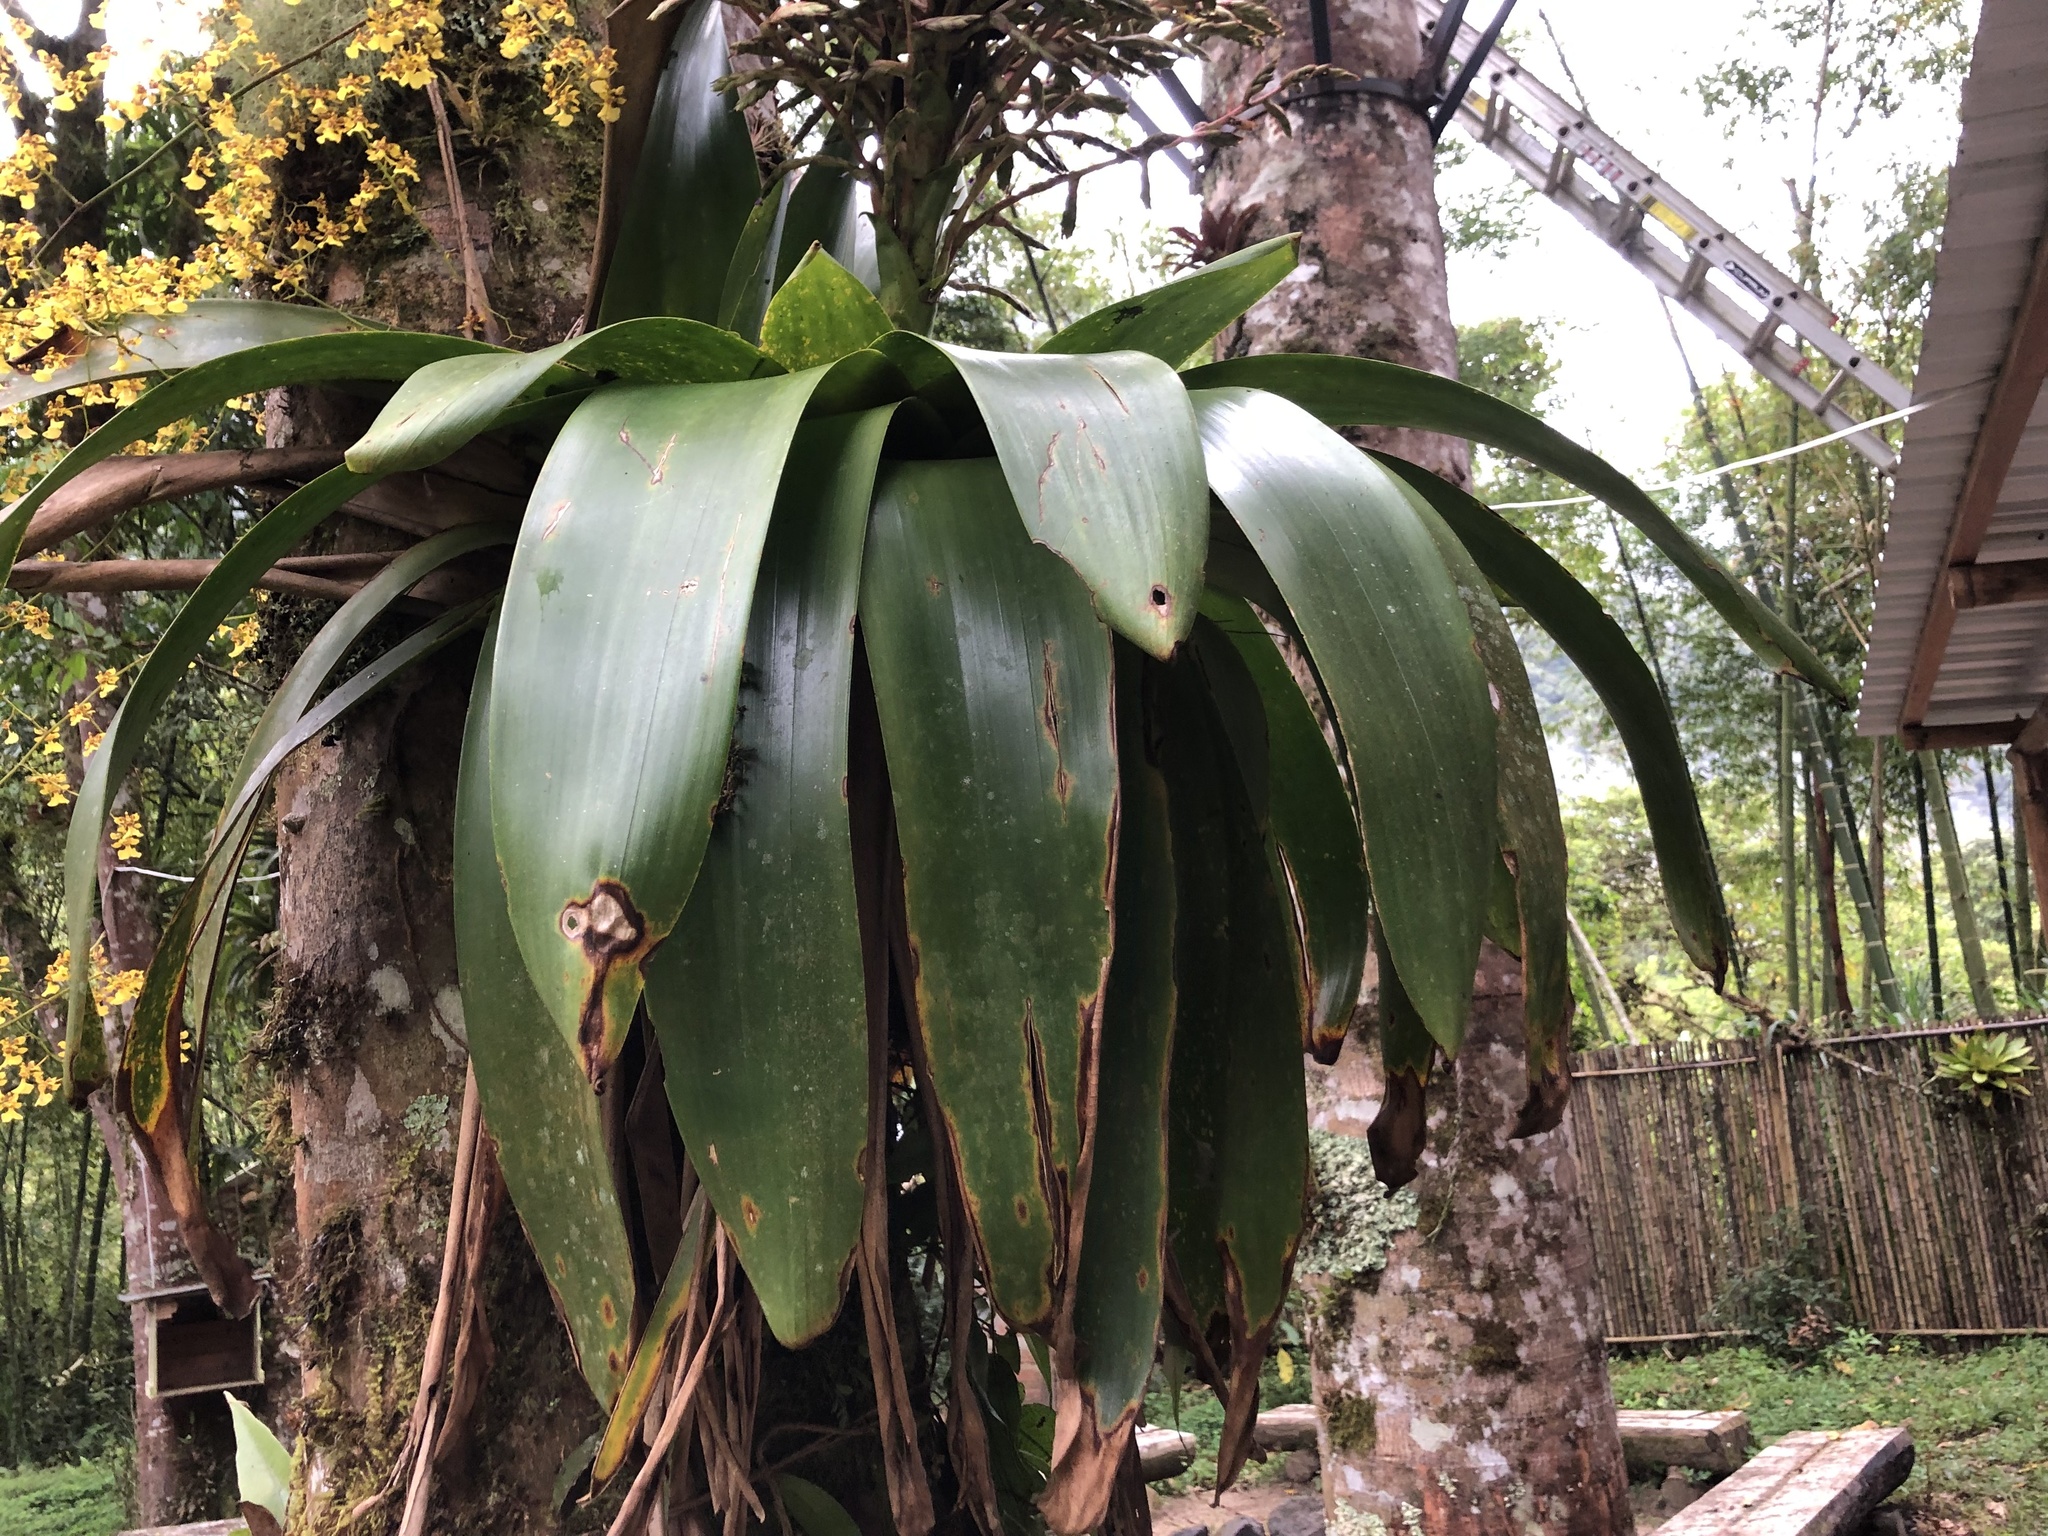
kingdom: Plantae
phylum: Tracheophyta
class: Liliopsida
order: Poales
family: Bromeliaceae
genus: Gregbrownia
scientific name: Gregbrownia lyman-smithii
